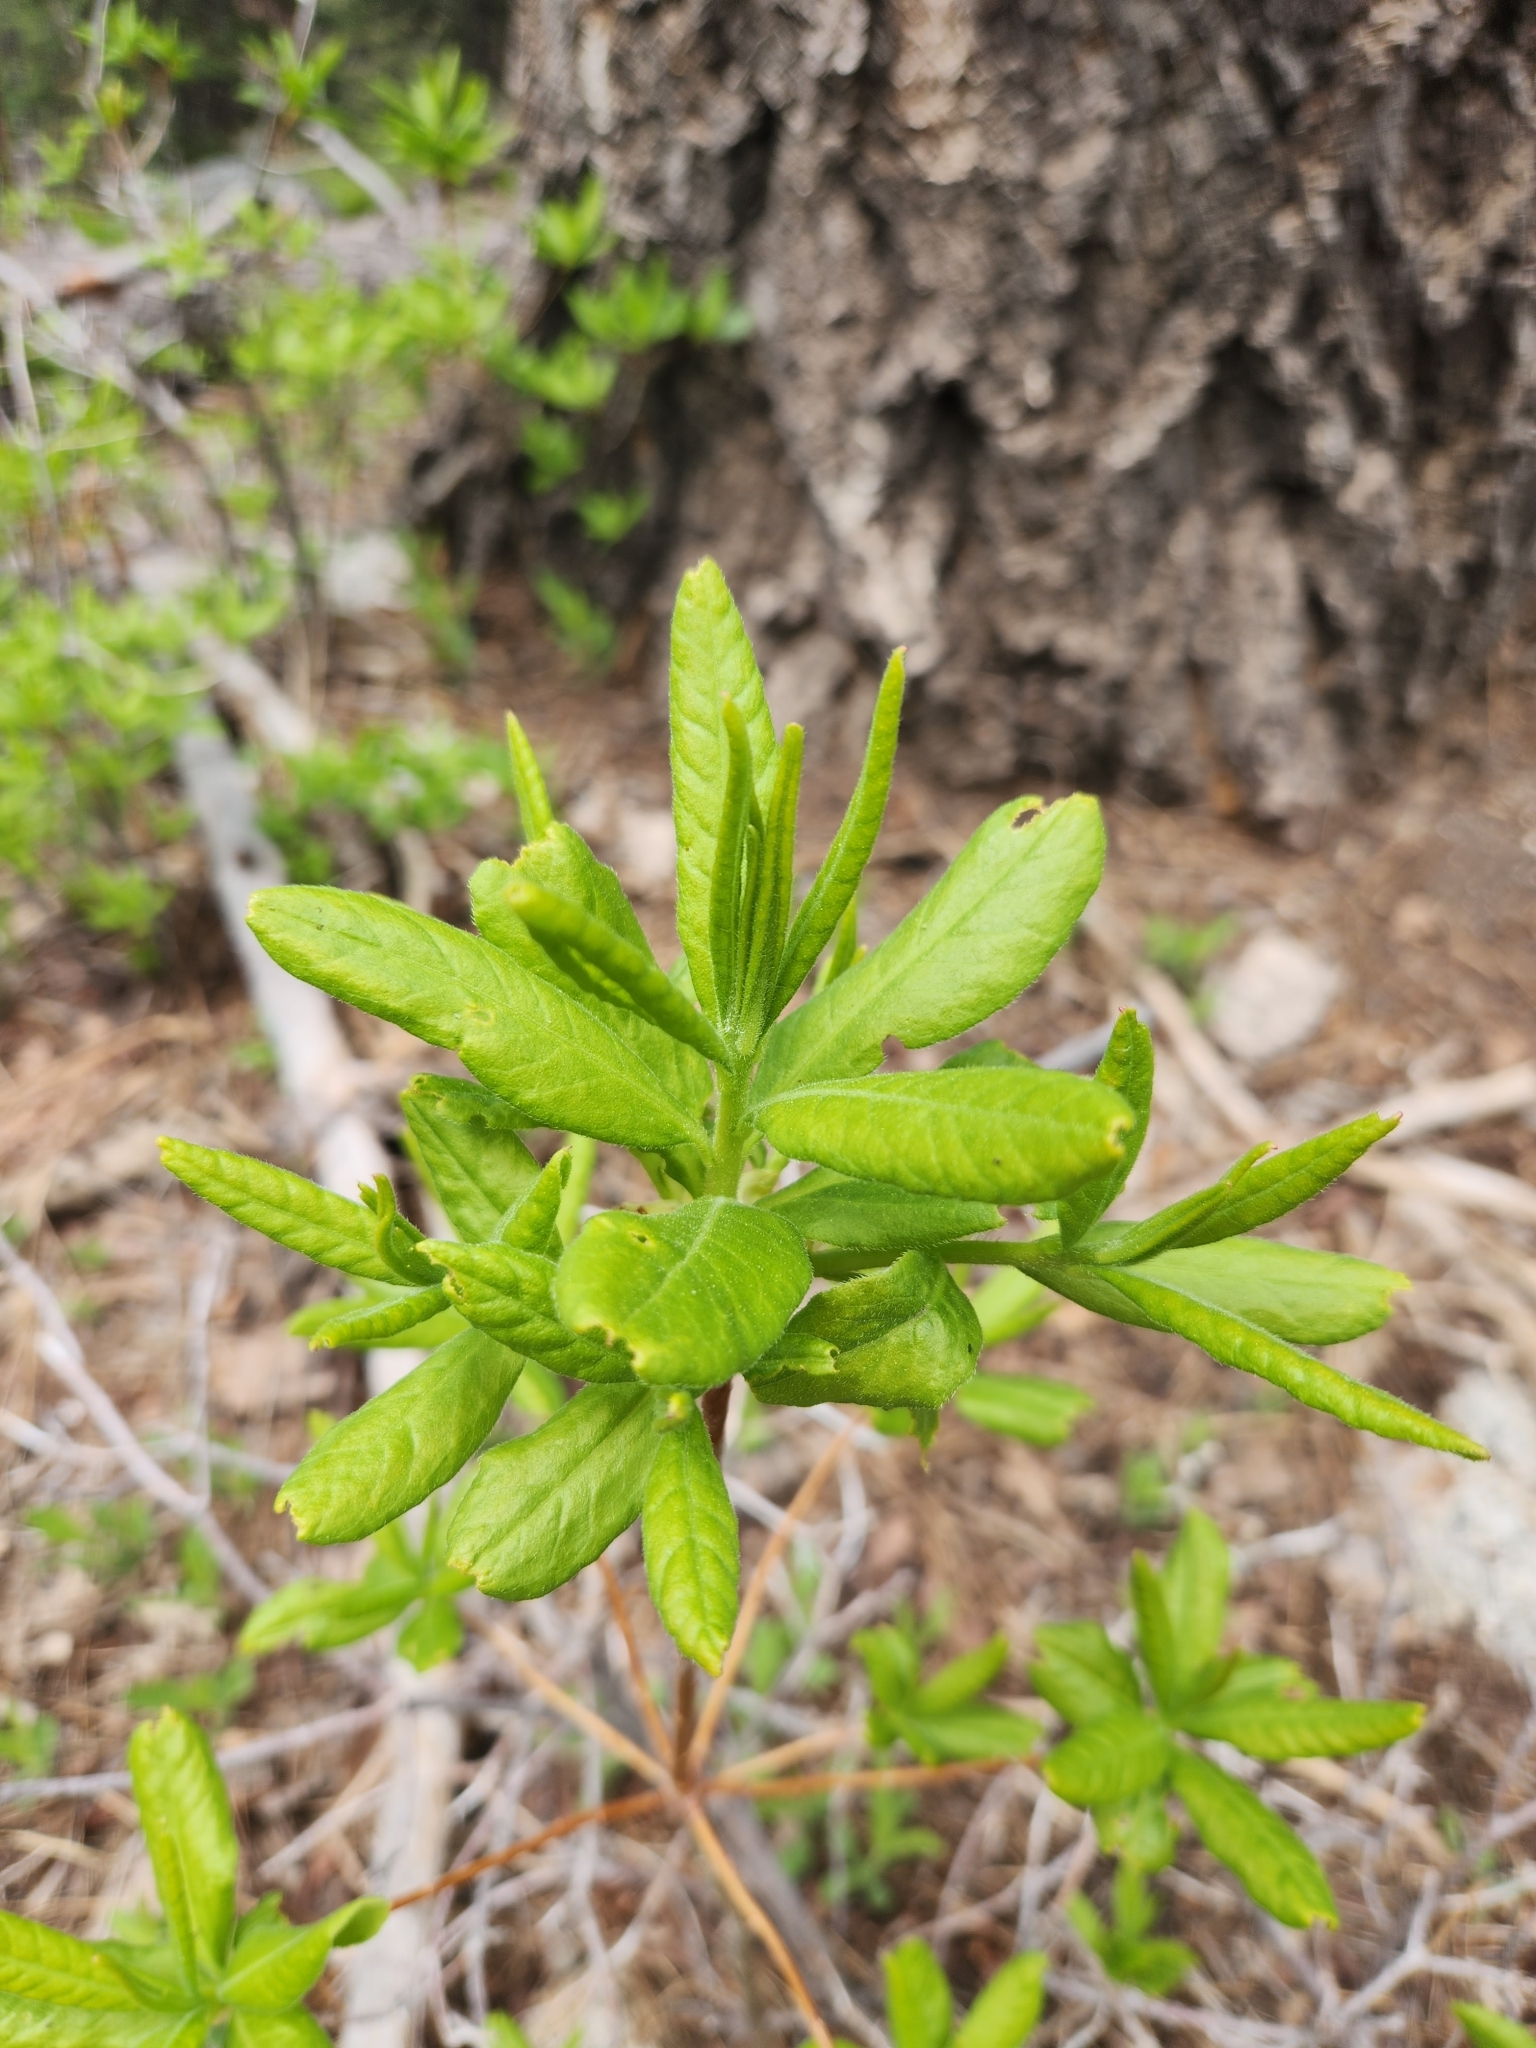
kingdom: Plantae
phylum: Tracheophyta
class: Magnoliopsida
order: Ericales
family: Ericaceae
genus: Rhododendron
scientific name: Rhododendron occidentale
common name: Western azalea
